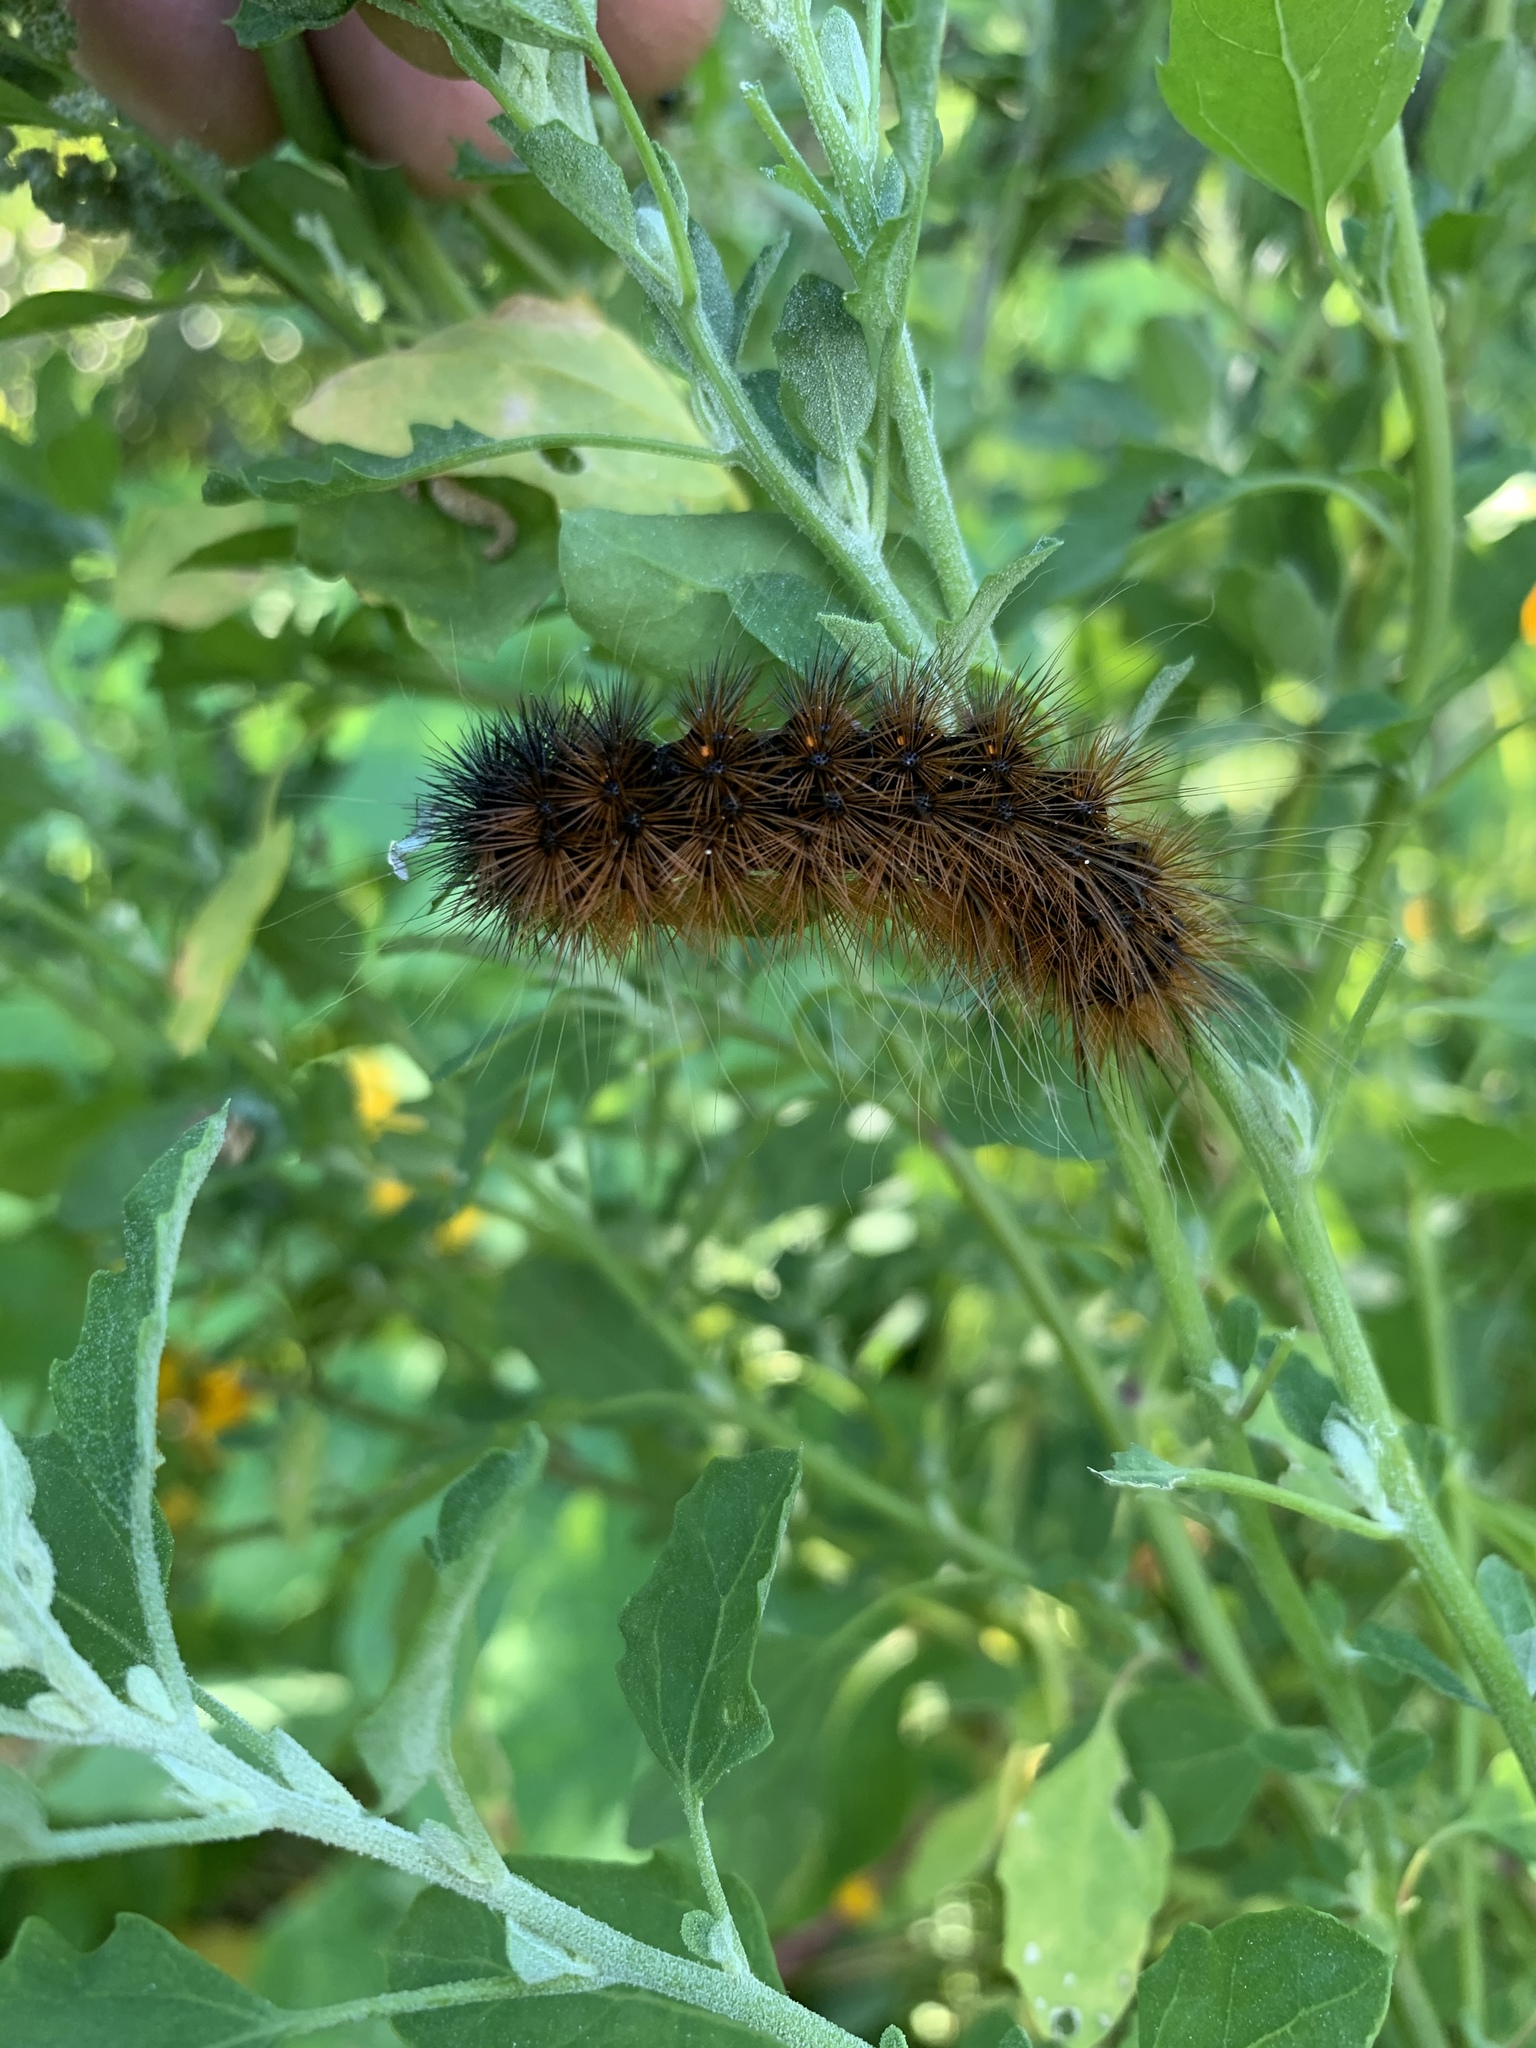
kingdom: Animalia
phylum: Arthropoda
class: Insecta
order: Lepidoptera
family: Erebidae
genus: Rhodogastria
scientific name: Rhodogastria amasis
